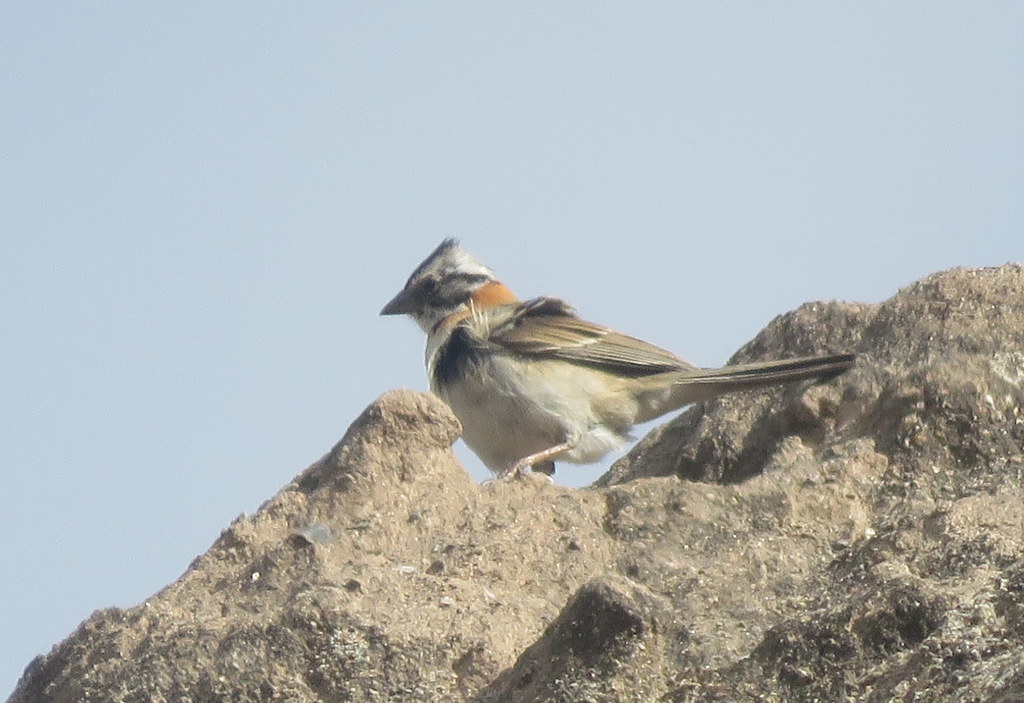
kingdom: Animalia
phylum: Chordata
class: Aves
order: Passeriformes
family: Passerellidae
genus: Zonotrichia
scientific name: Zonotrichia capensis
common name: Rufous-collared sparrow
